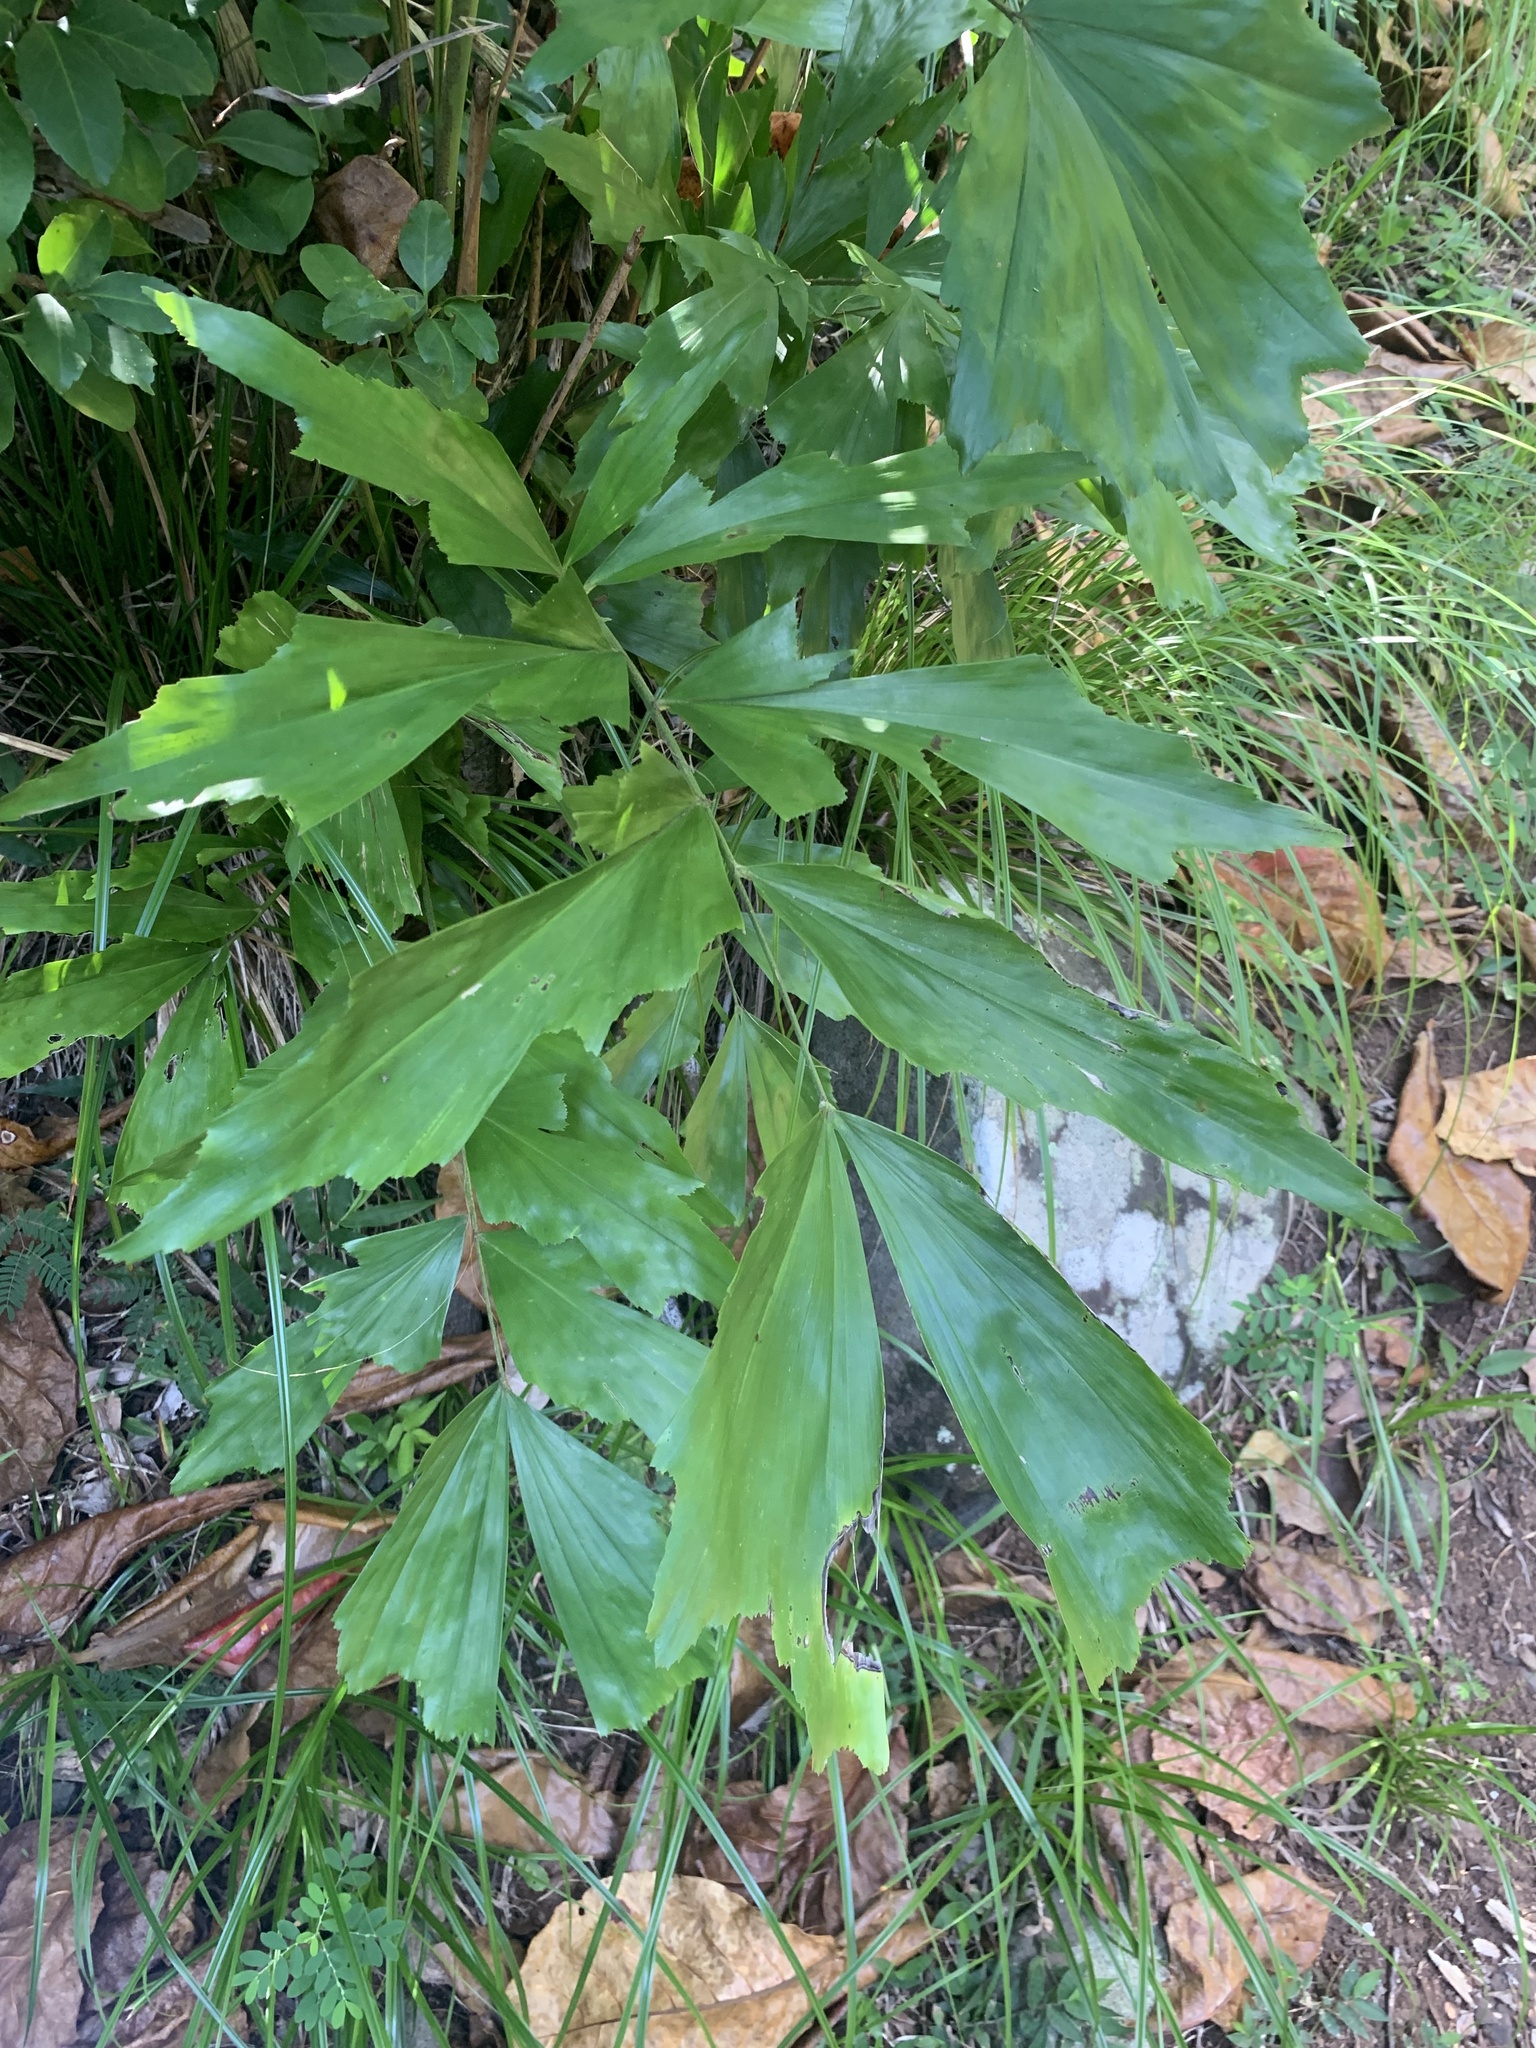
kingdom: Plantae
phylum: Tracheophyta
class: Liliopsida
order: Arecales
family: Arecaceae
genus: Caryota
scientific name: Caryota cumingii
